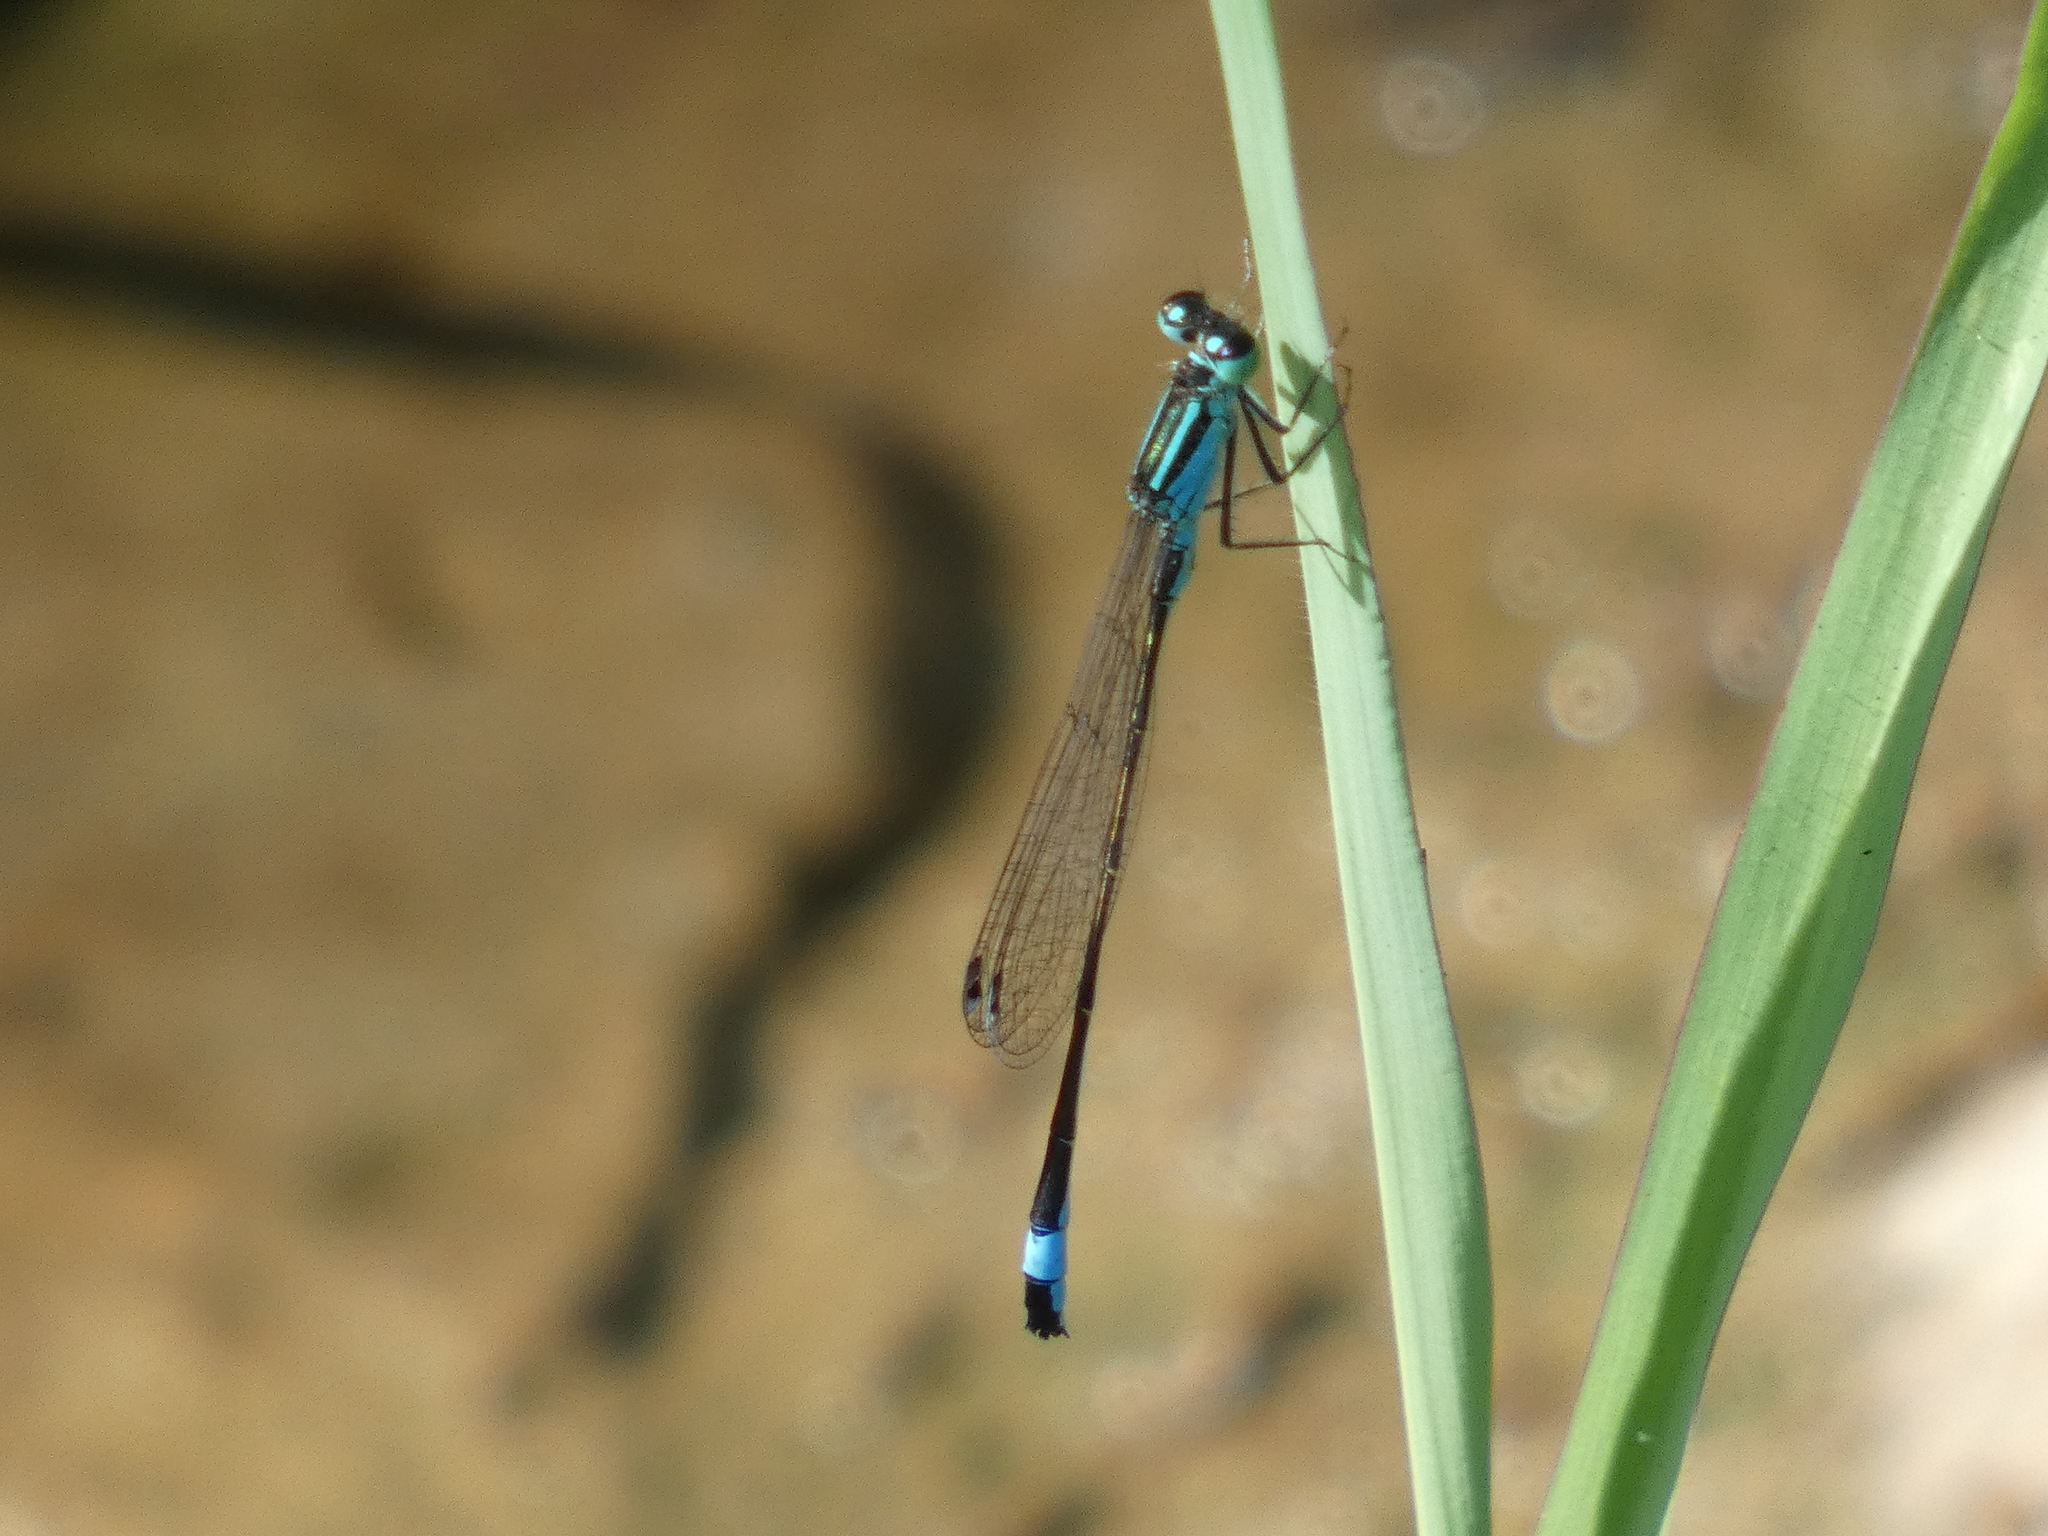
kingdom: Animalia
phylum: Arthropoda
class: Insecta
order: Odonata
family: Coenagrionidae
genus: Ischnura
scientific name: Ischnura elegans
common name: Blue-tailed damselfly
